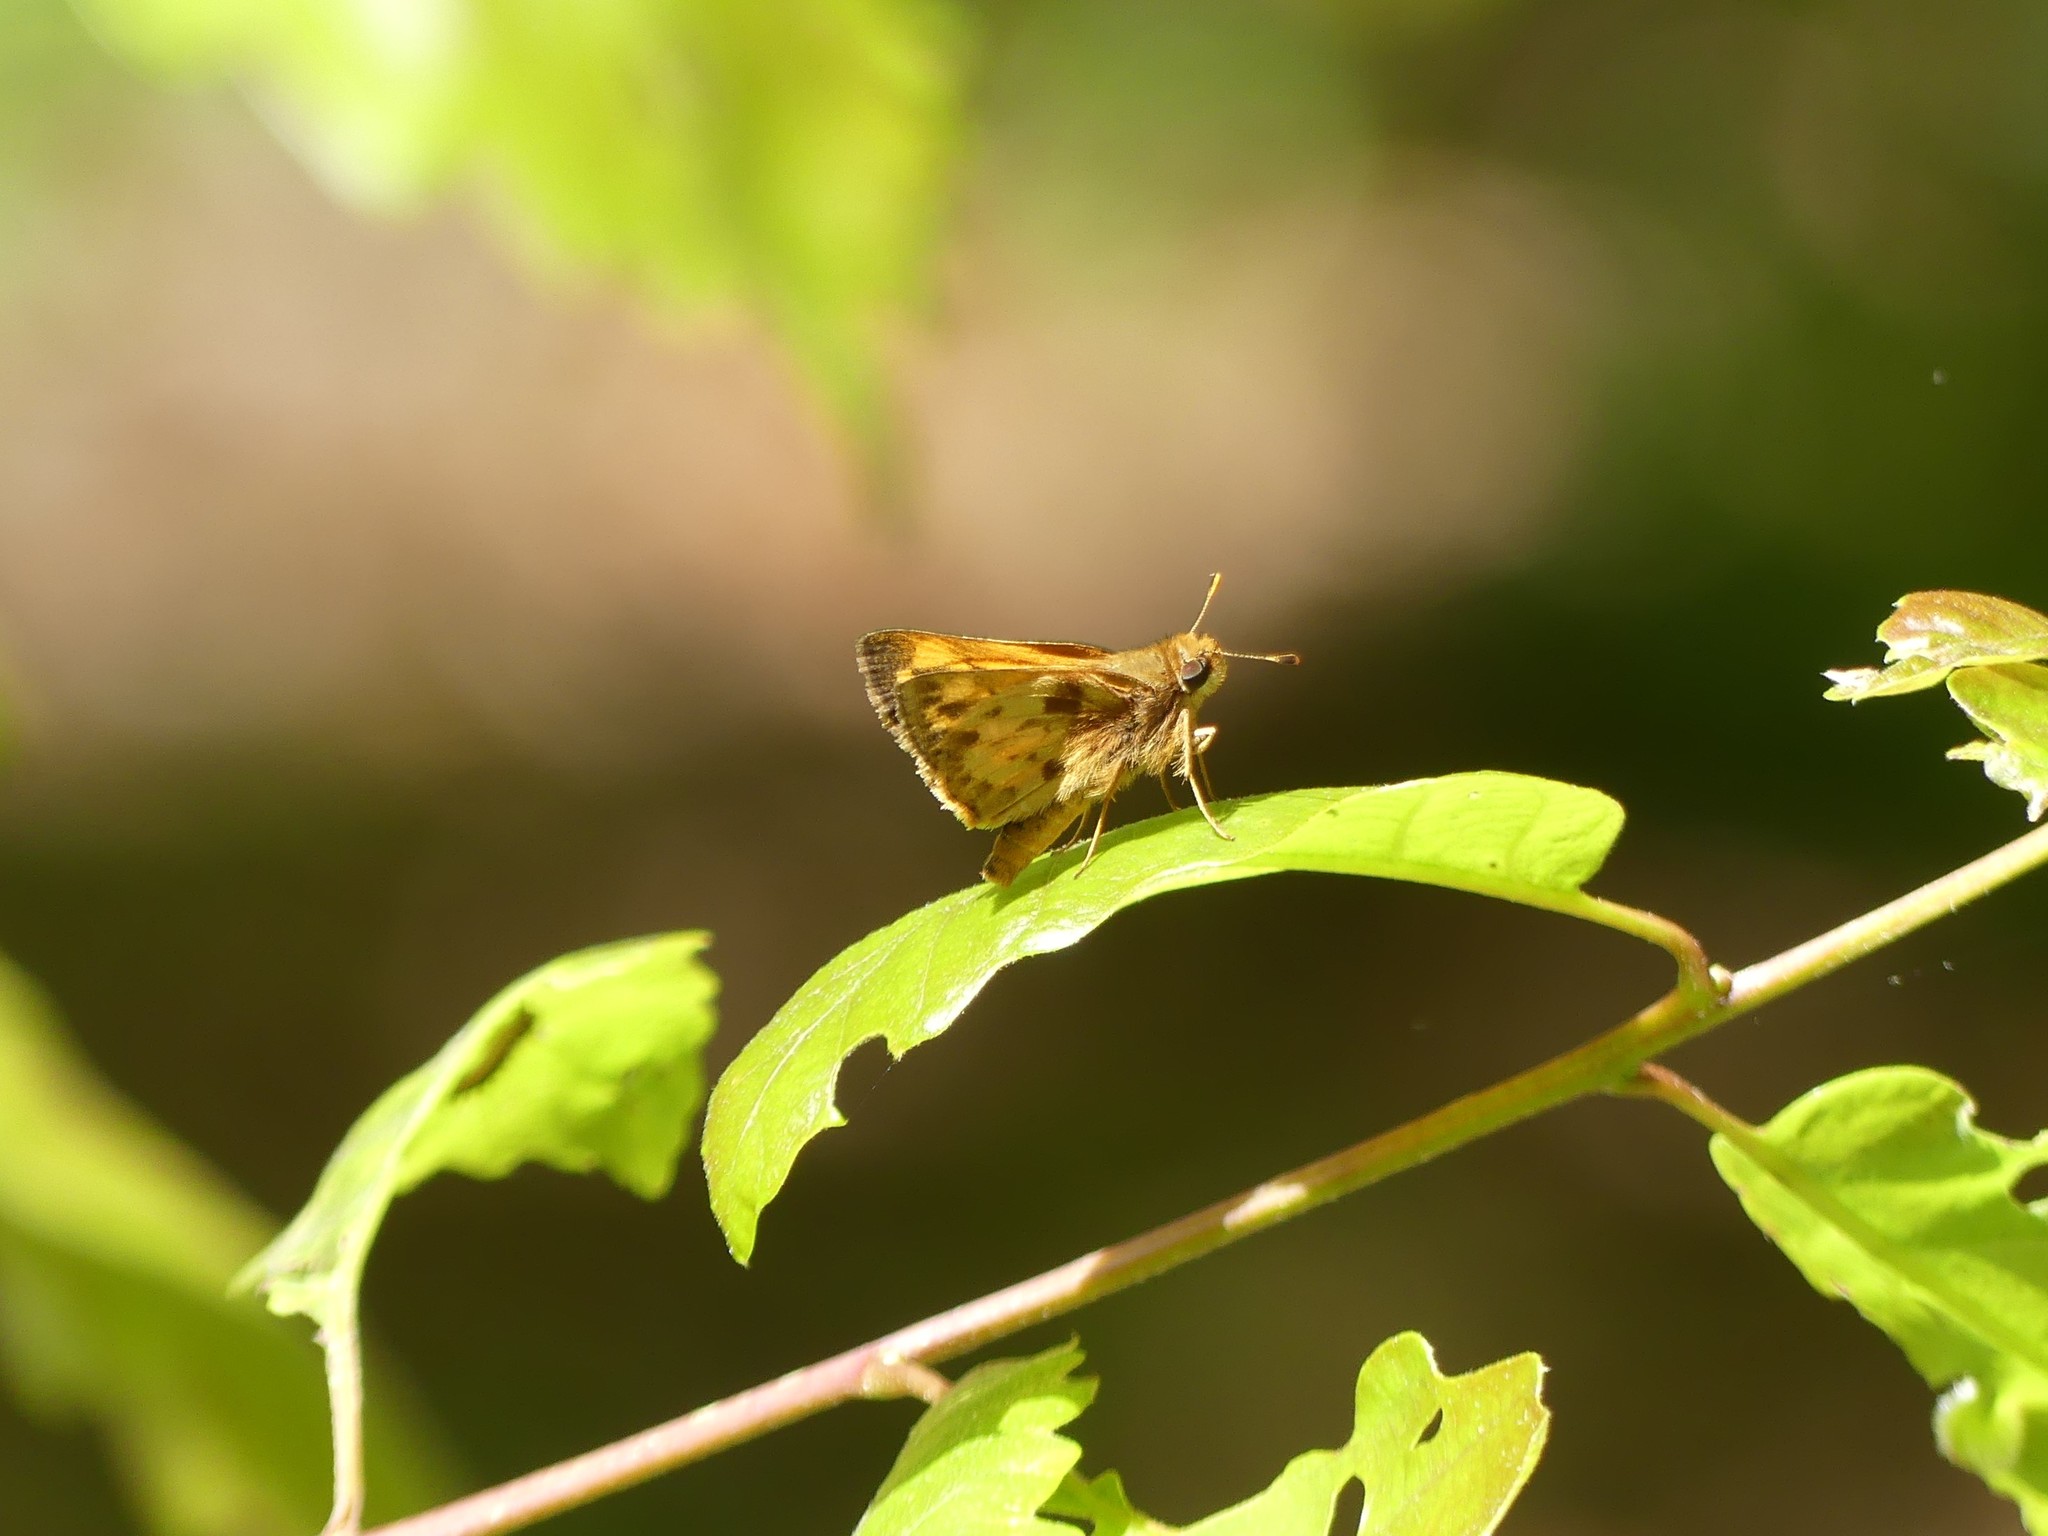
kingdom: Animalia
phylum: Arthropoda
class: Insecta
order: Lepidoptera
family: Hesperiidae
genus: Lon
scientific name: Lon zabulon
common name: Zabulon skipper
